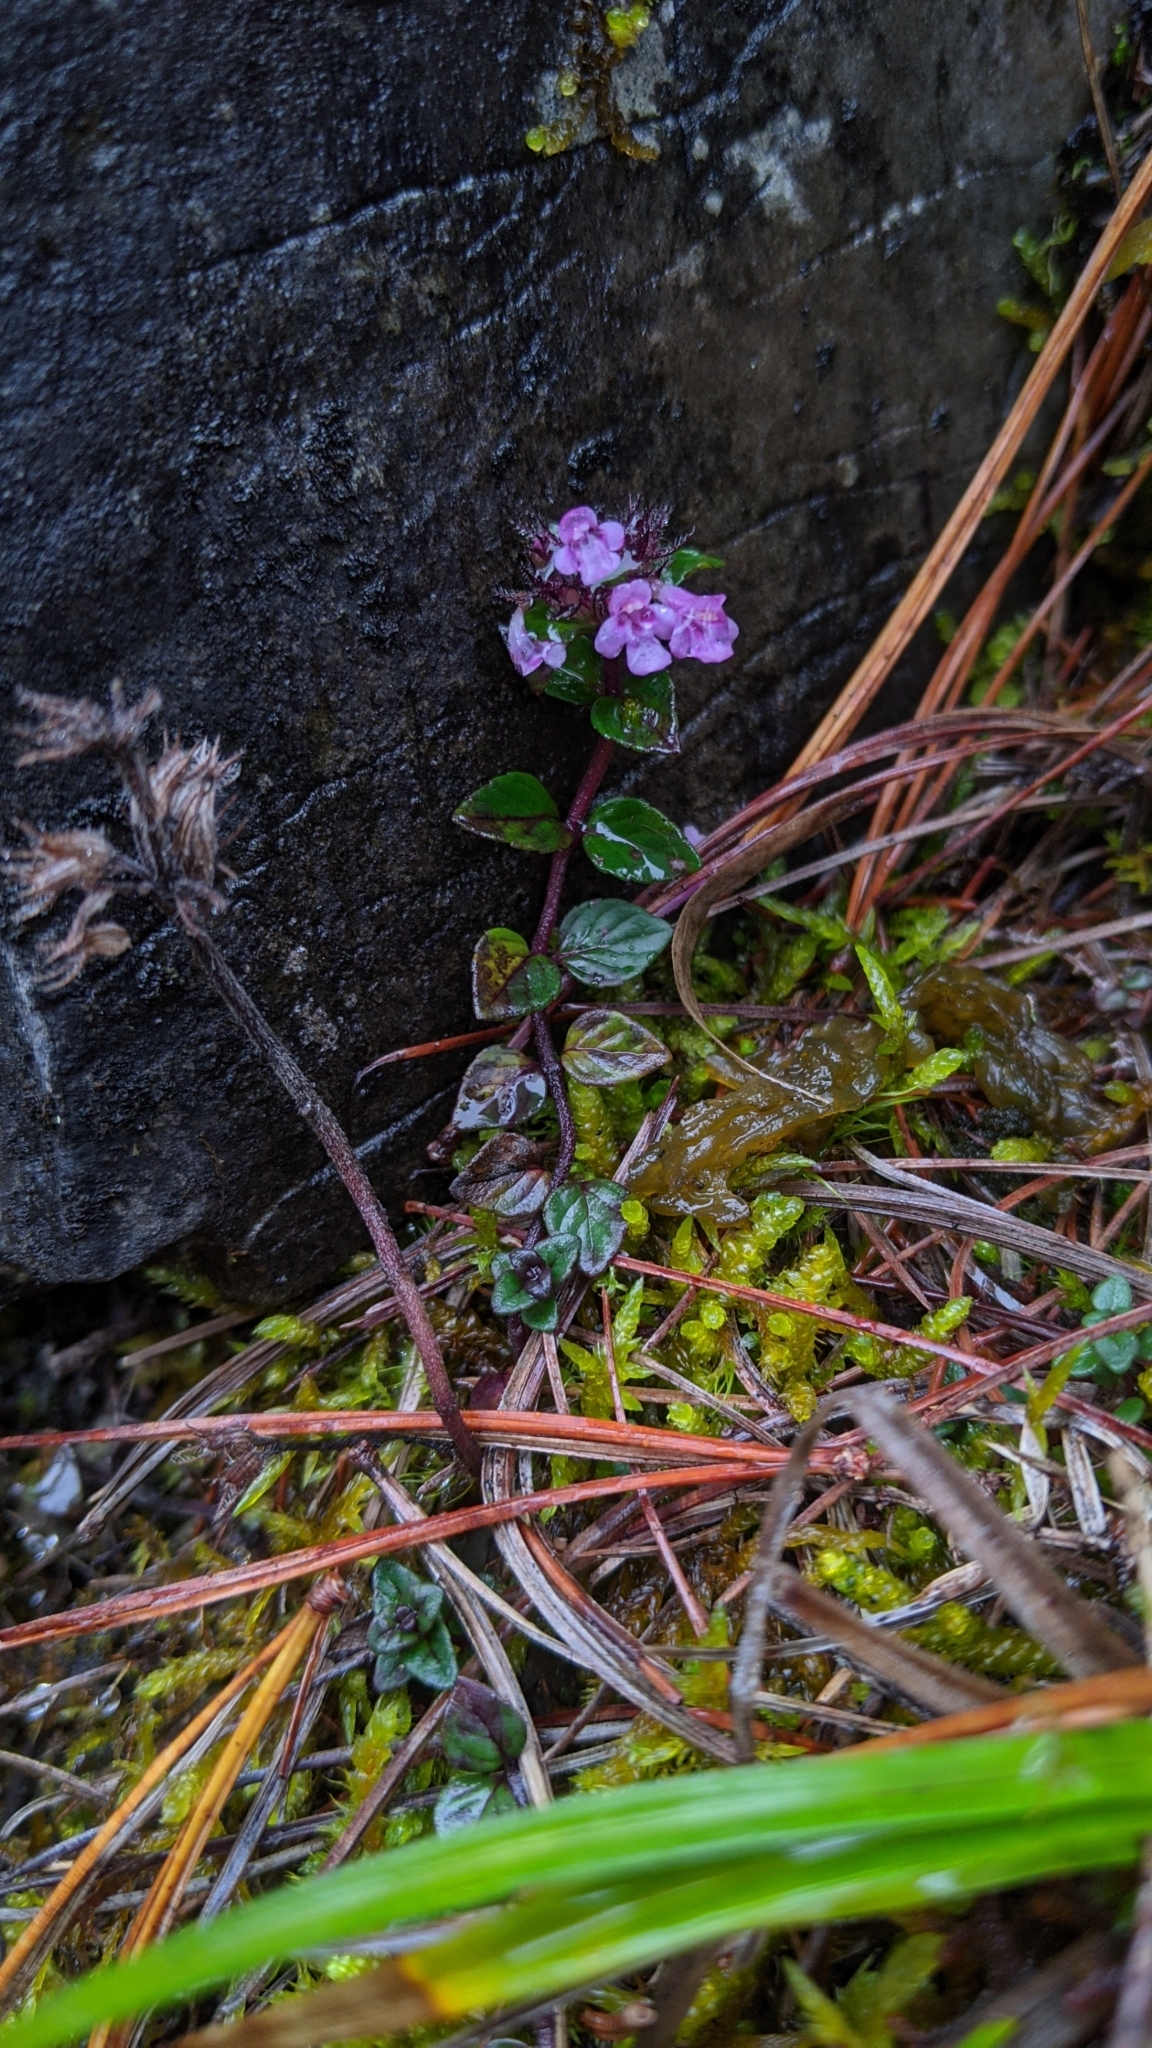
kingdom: Plantae
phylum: Tracheophyta
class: Magnoliopsida
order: Lamiales
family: Lamiaceae
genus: Origanum
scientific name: Origanum vulgare
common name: Wild marjoram
